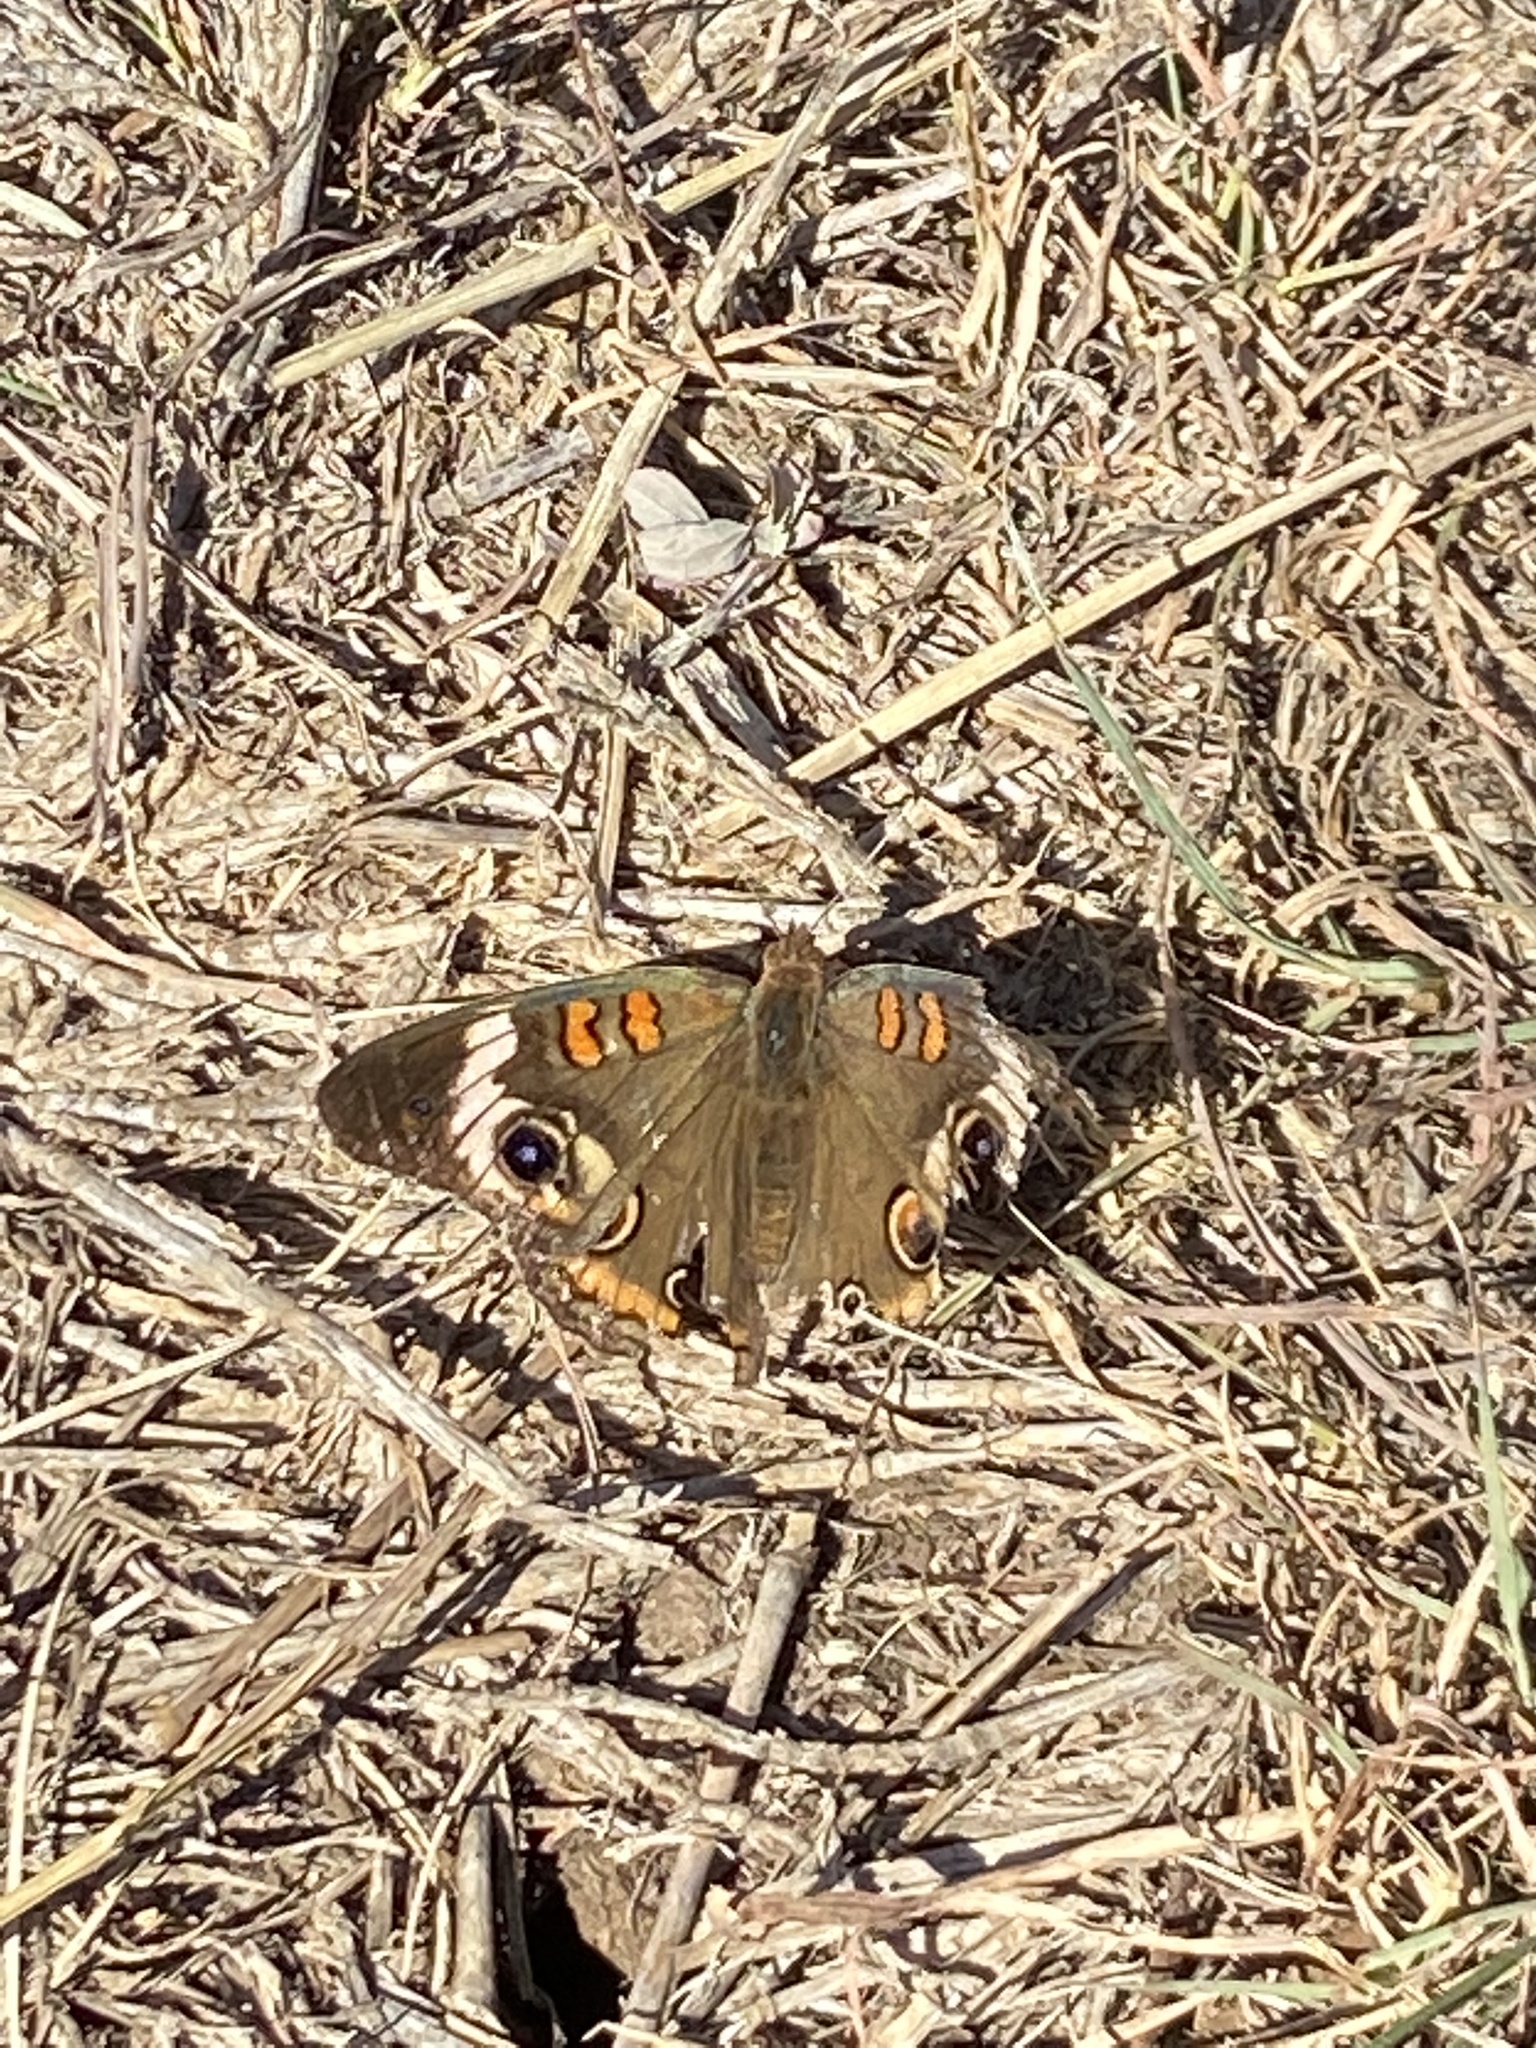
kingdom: Animalia
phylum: Arthropoda
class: Insecta
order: Lepidoptera
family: Nymphalidae
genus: Junonia
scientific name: Junonia coenia
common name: Common buckeye
